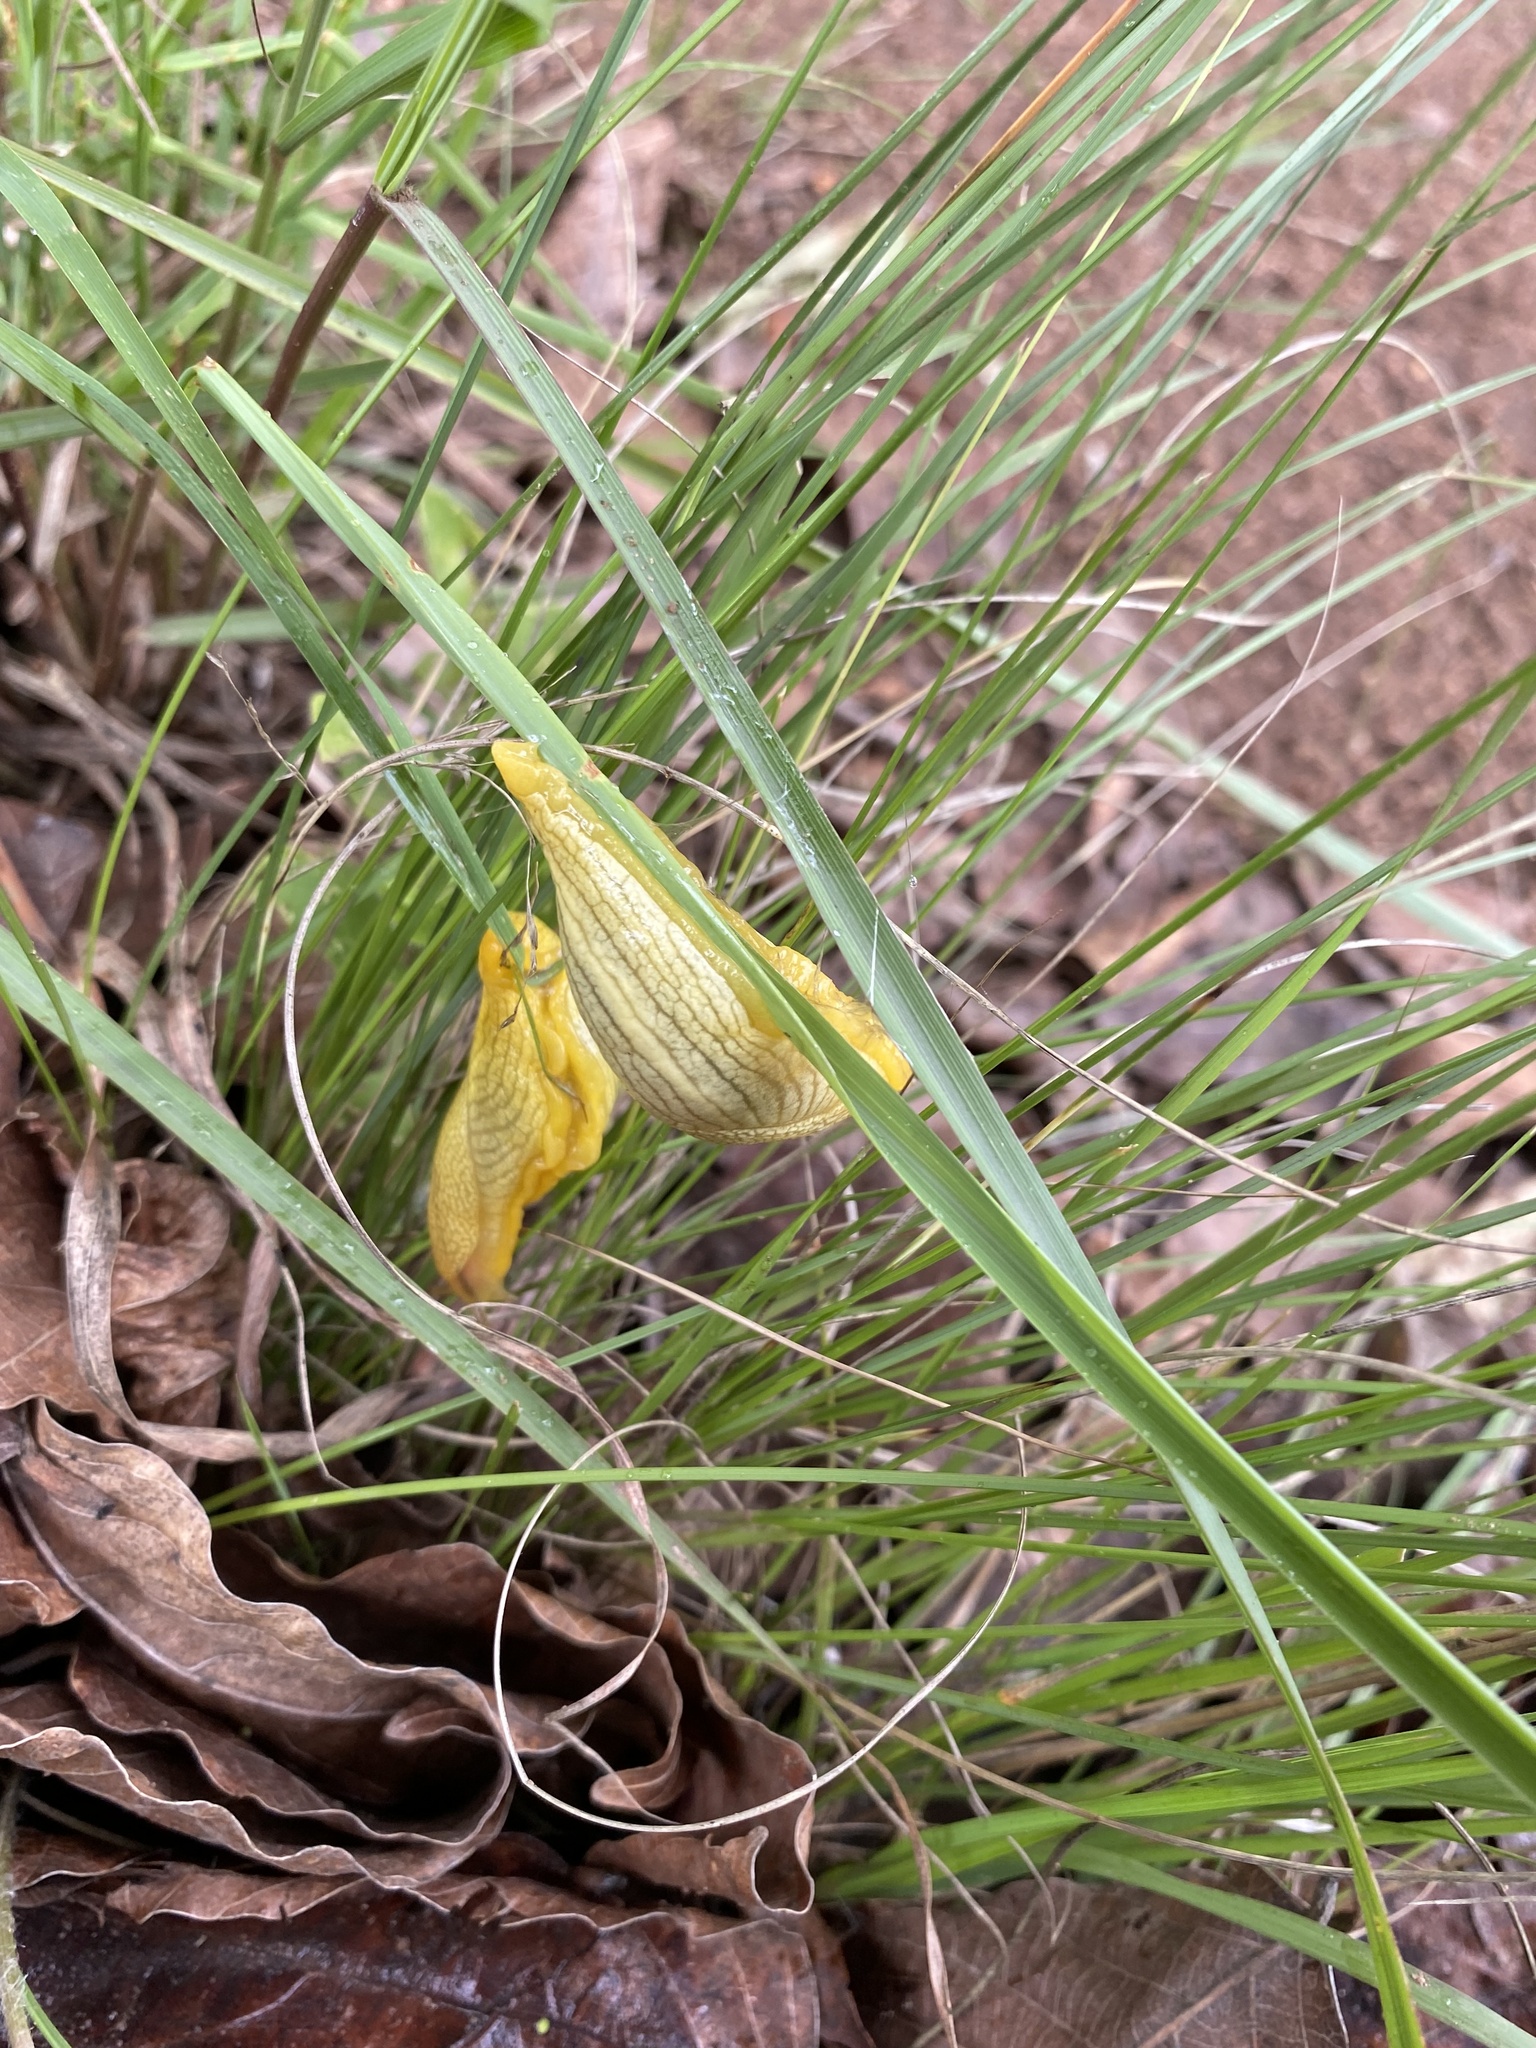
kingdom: Animalia
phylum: Mollusca
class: Gastropoda
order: Stylommatophora
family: Urocyclidae
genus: Elisolimax
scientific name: Elisolimax flavescens
